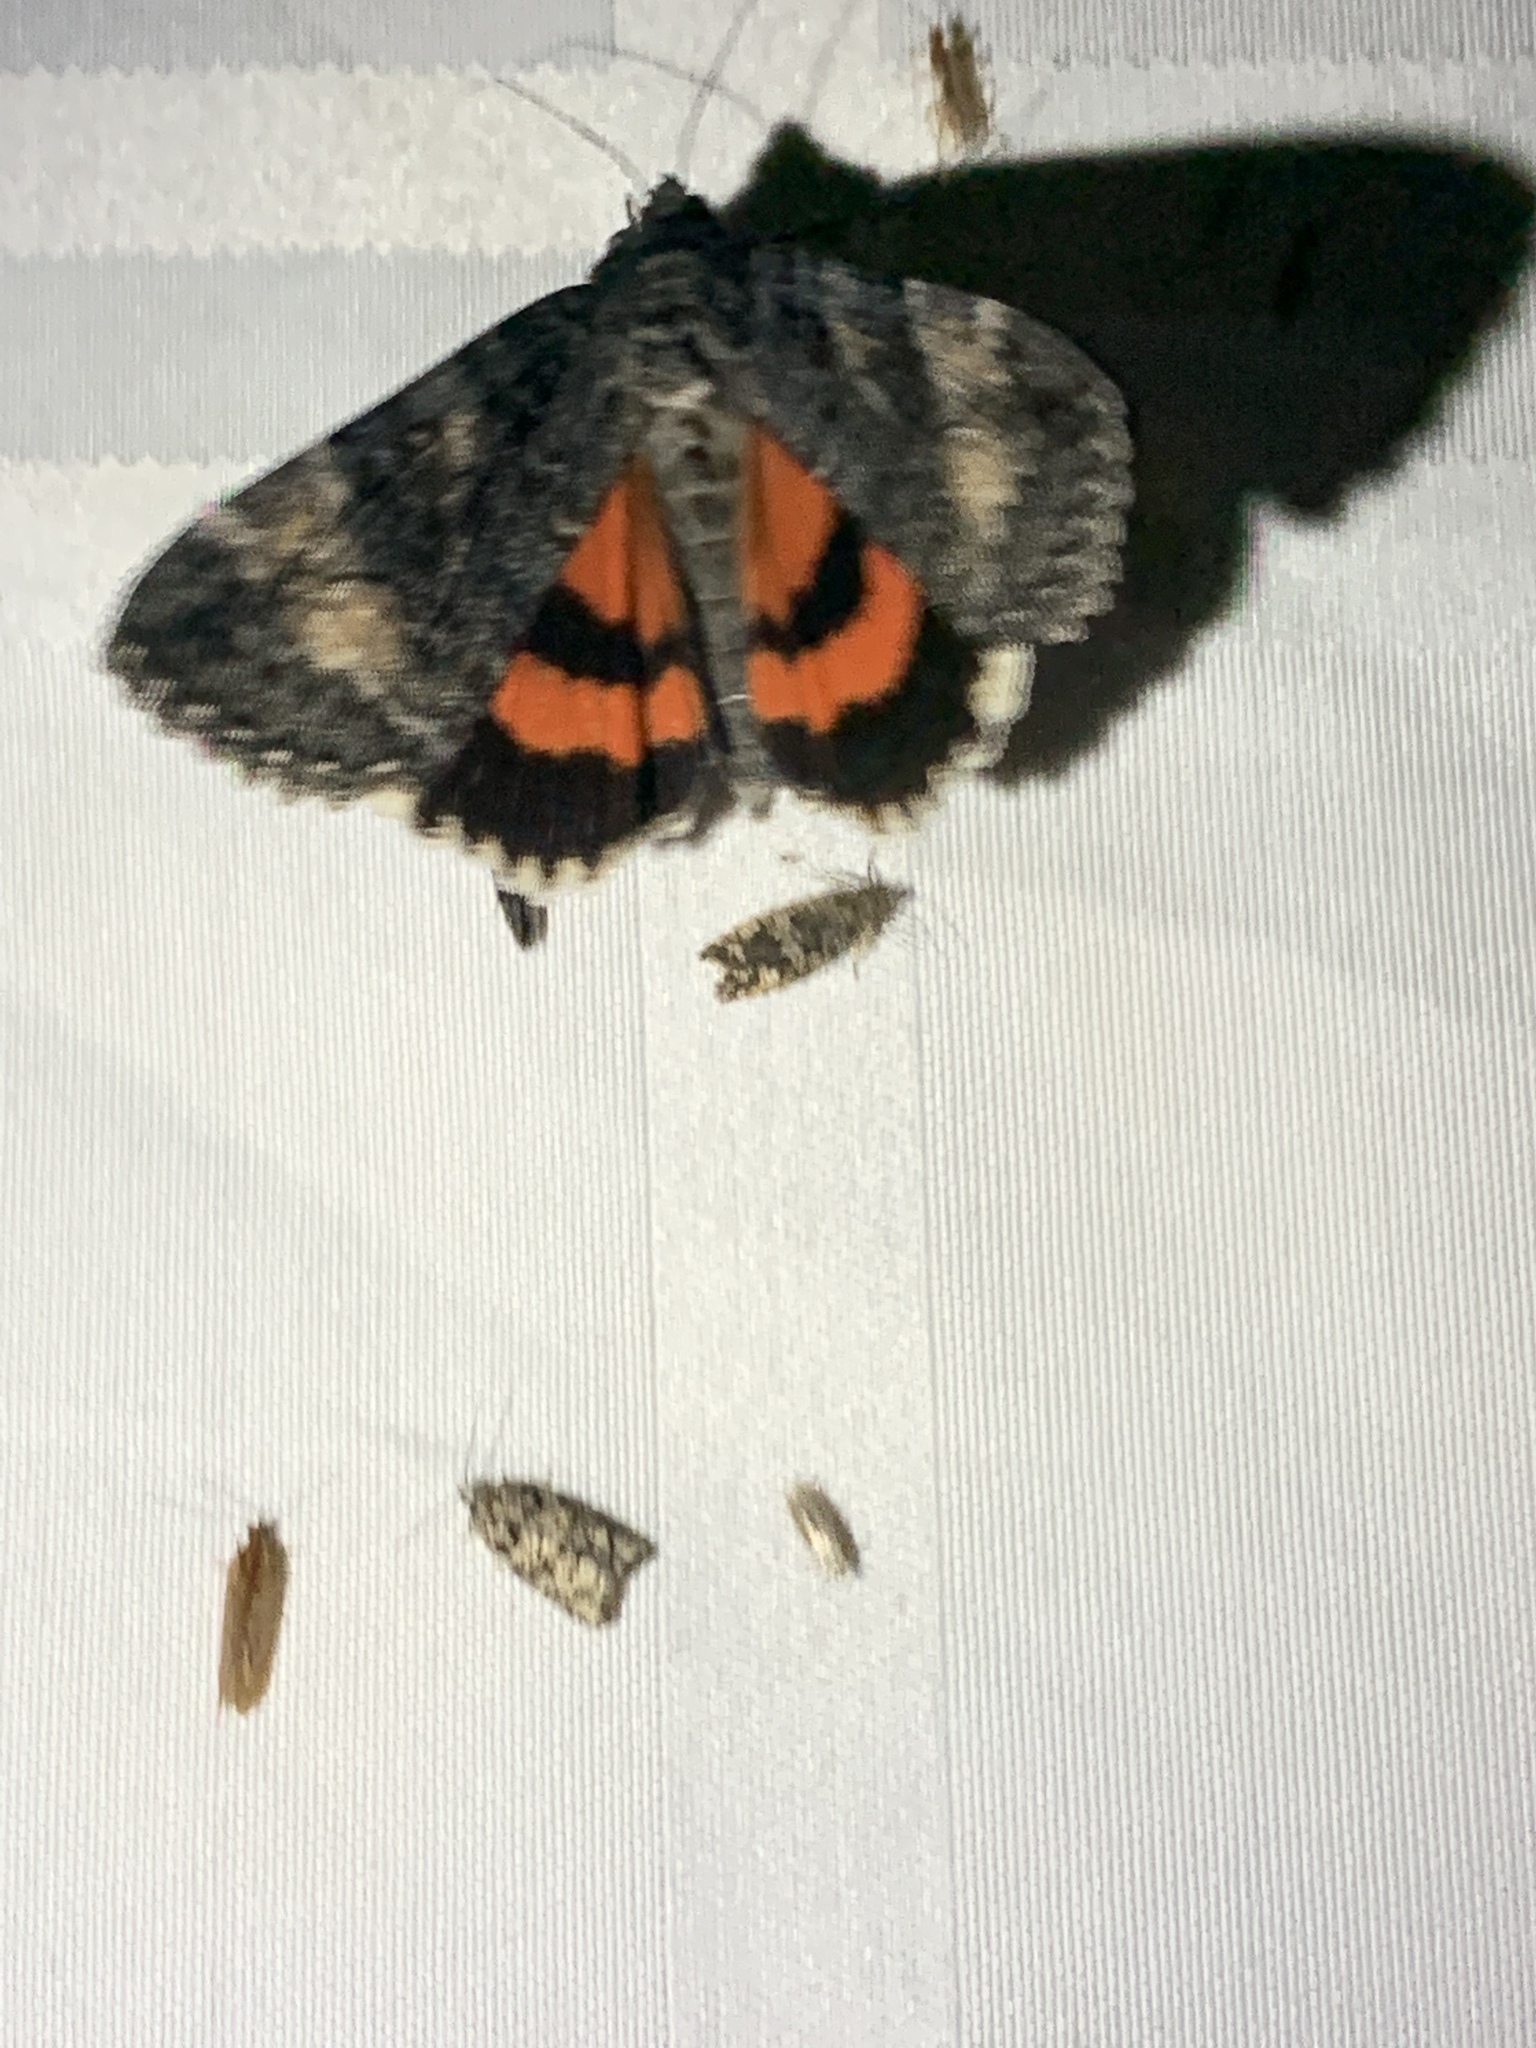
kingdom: Animalia
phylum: Arthropoda
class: Insecta
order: Lepidoptera
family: Erebidae
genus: Catocala
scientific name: Catocala briseis
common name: Briseis underwing
